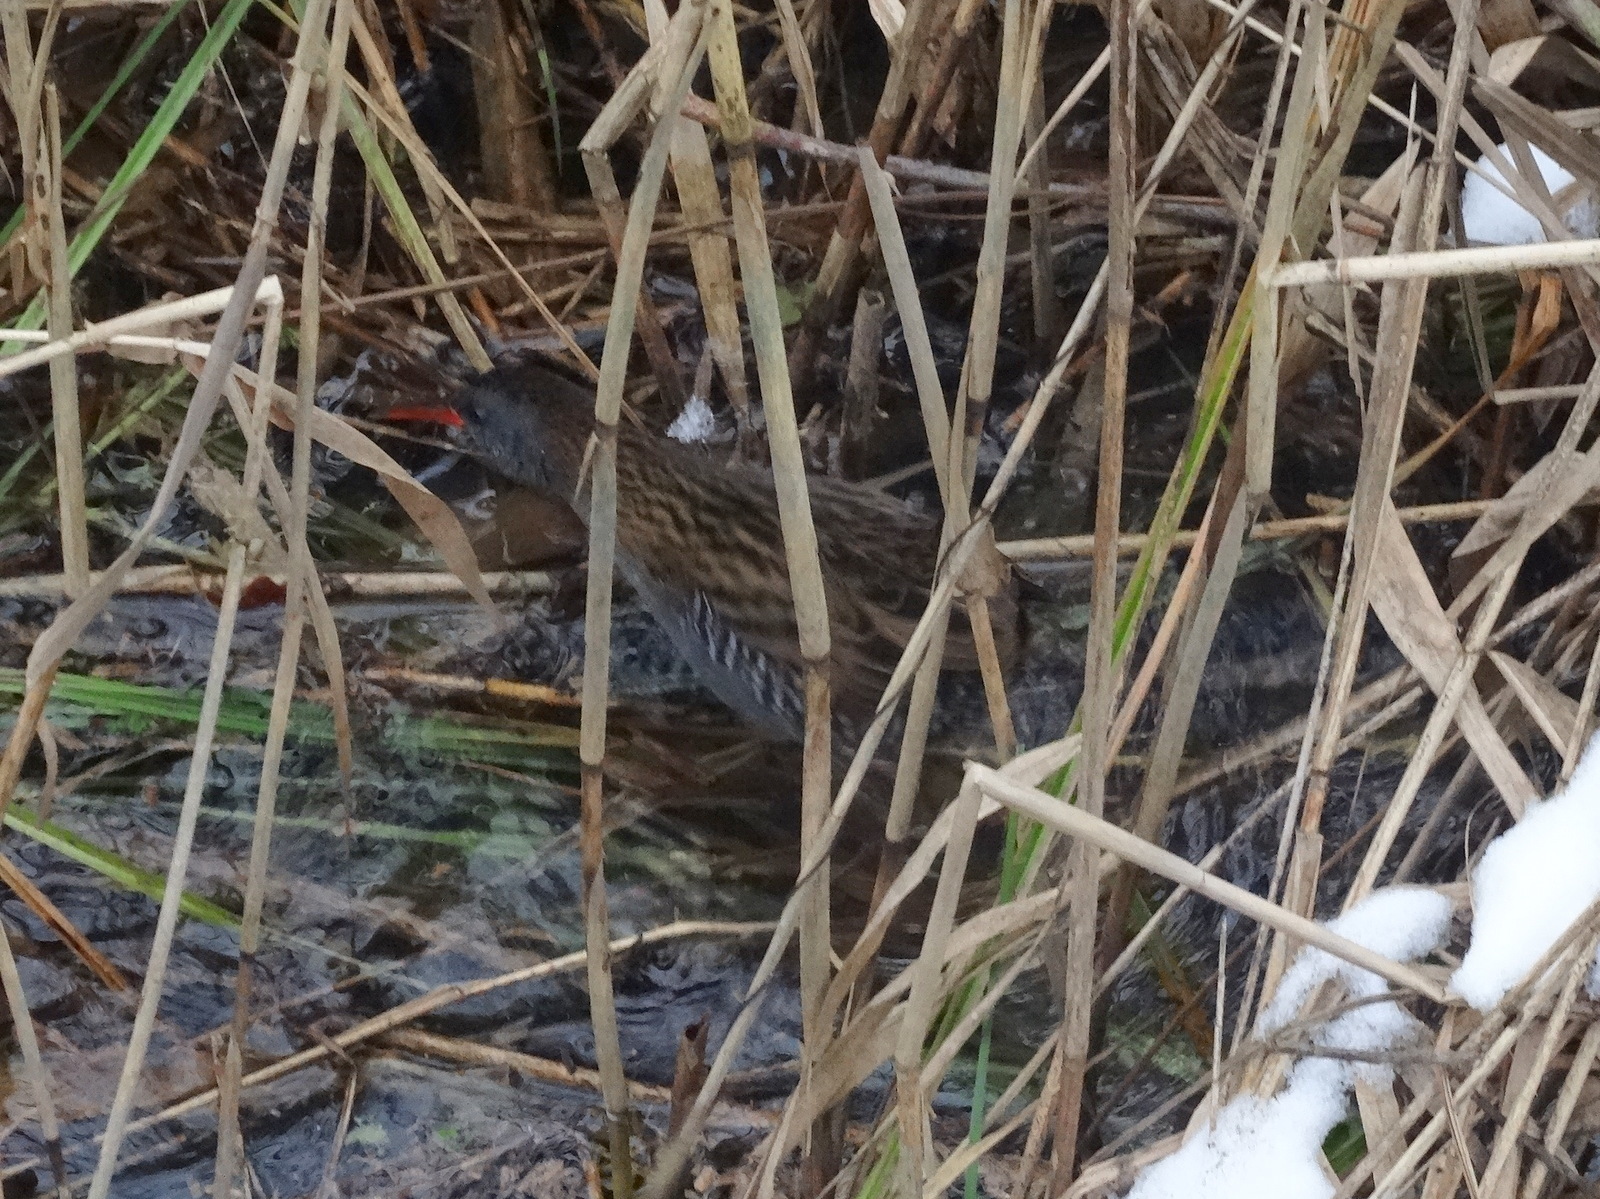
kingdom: Animalia
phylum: Chordata
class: Aves
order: Gruiformes
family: Rallidae
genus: Rallus
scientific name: Rallus aquaticus
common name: Water rail
